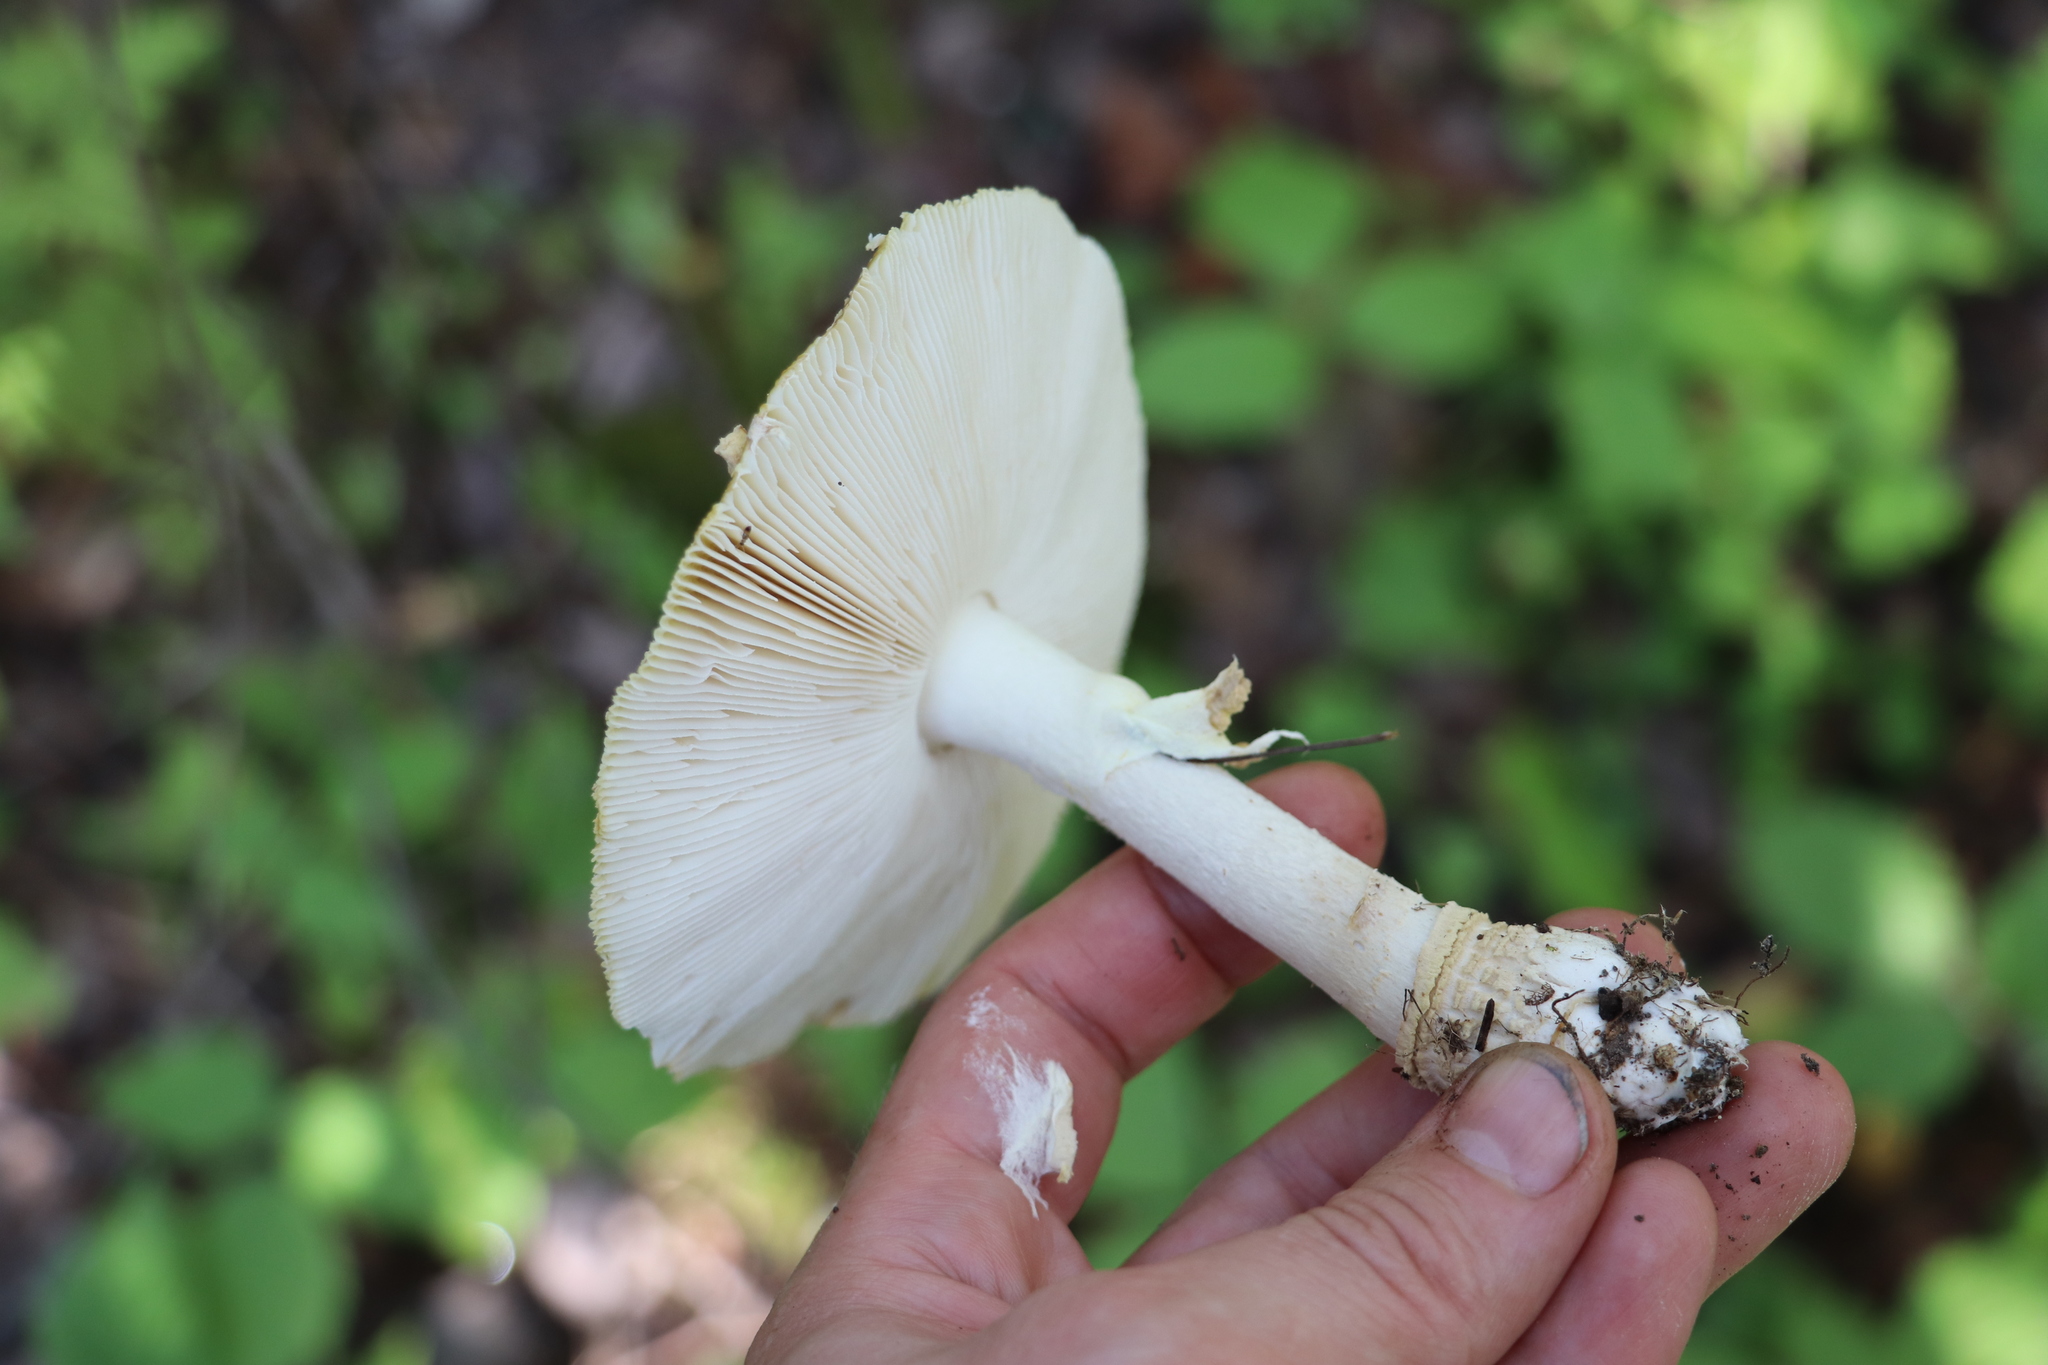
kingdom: Fungi
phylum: Basidiomycota
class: Agaricomycetes
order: Agaricales
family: Amanitaceae
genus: Amanita
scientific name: Amanita regalis
